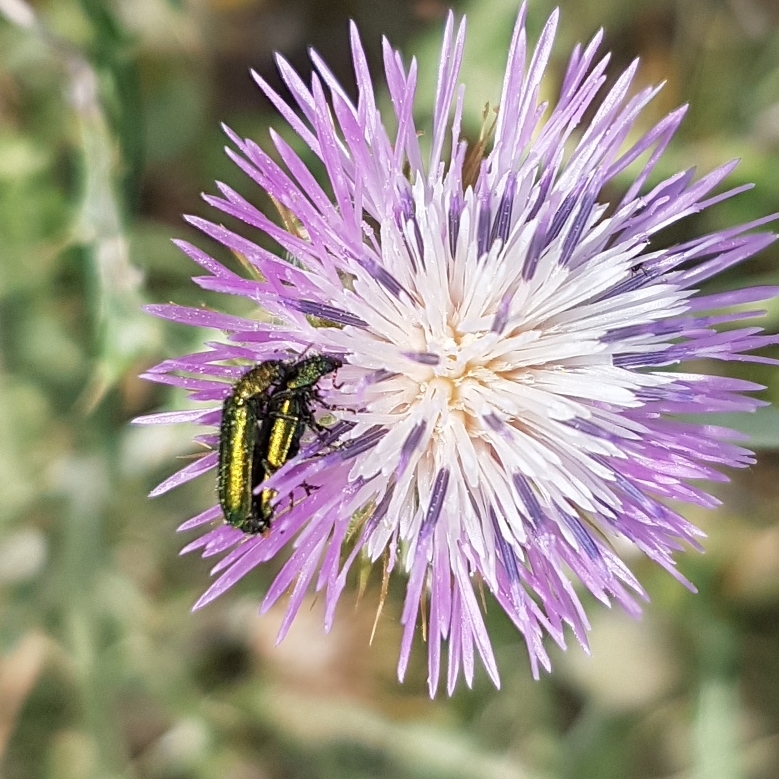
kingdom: Animalia
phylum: Arthropoda
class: Insecta
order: Coleoptera
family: Dasytidae
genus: Psilothrix
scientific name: Psilothrix viridicoerulea
